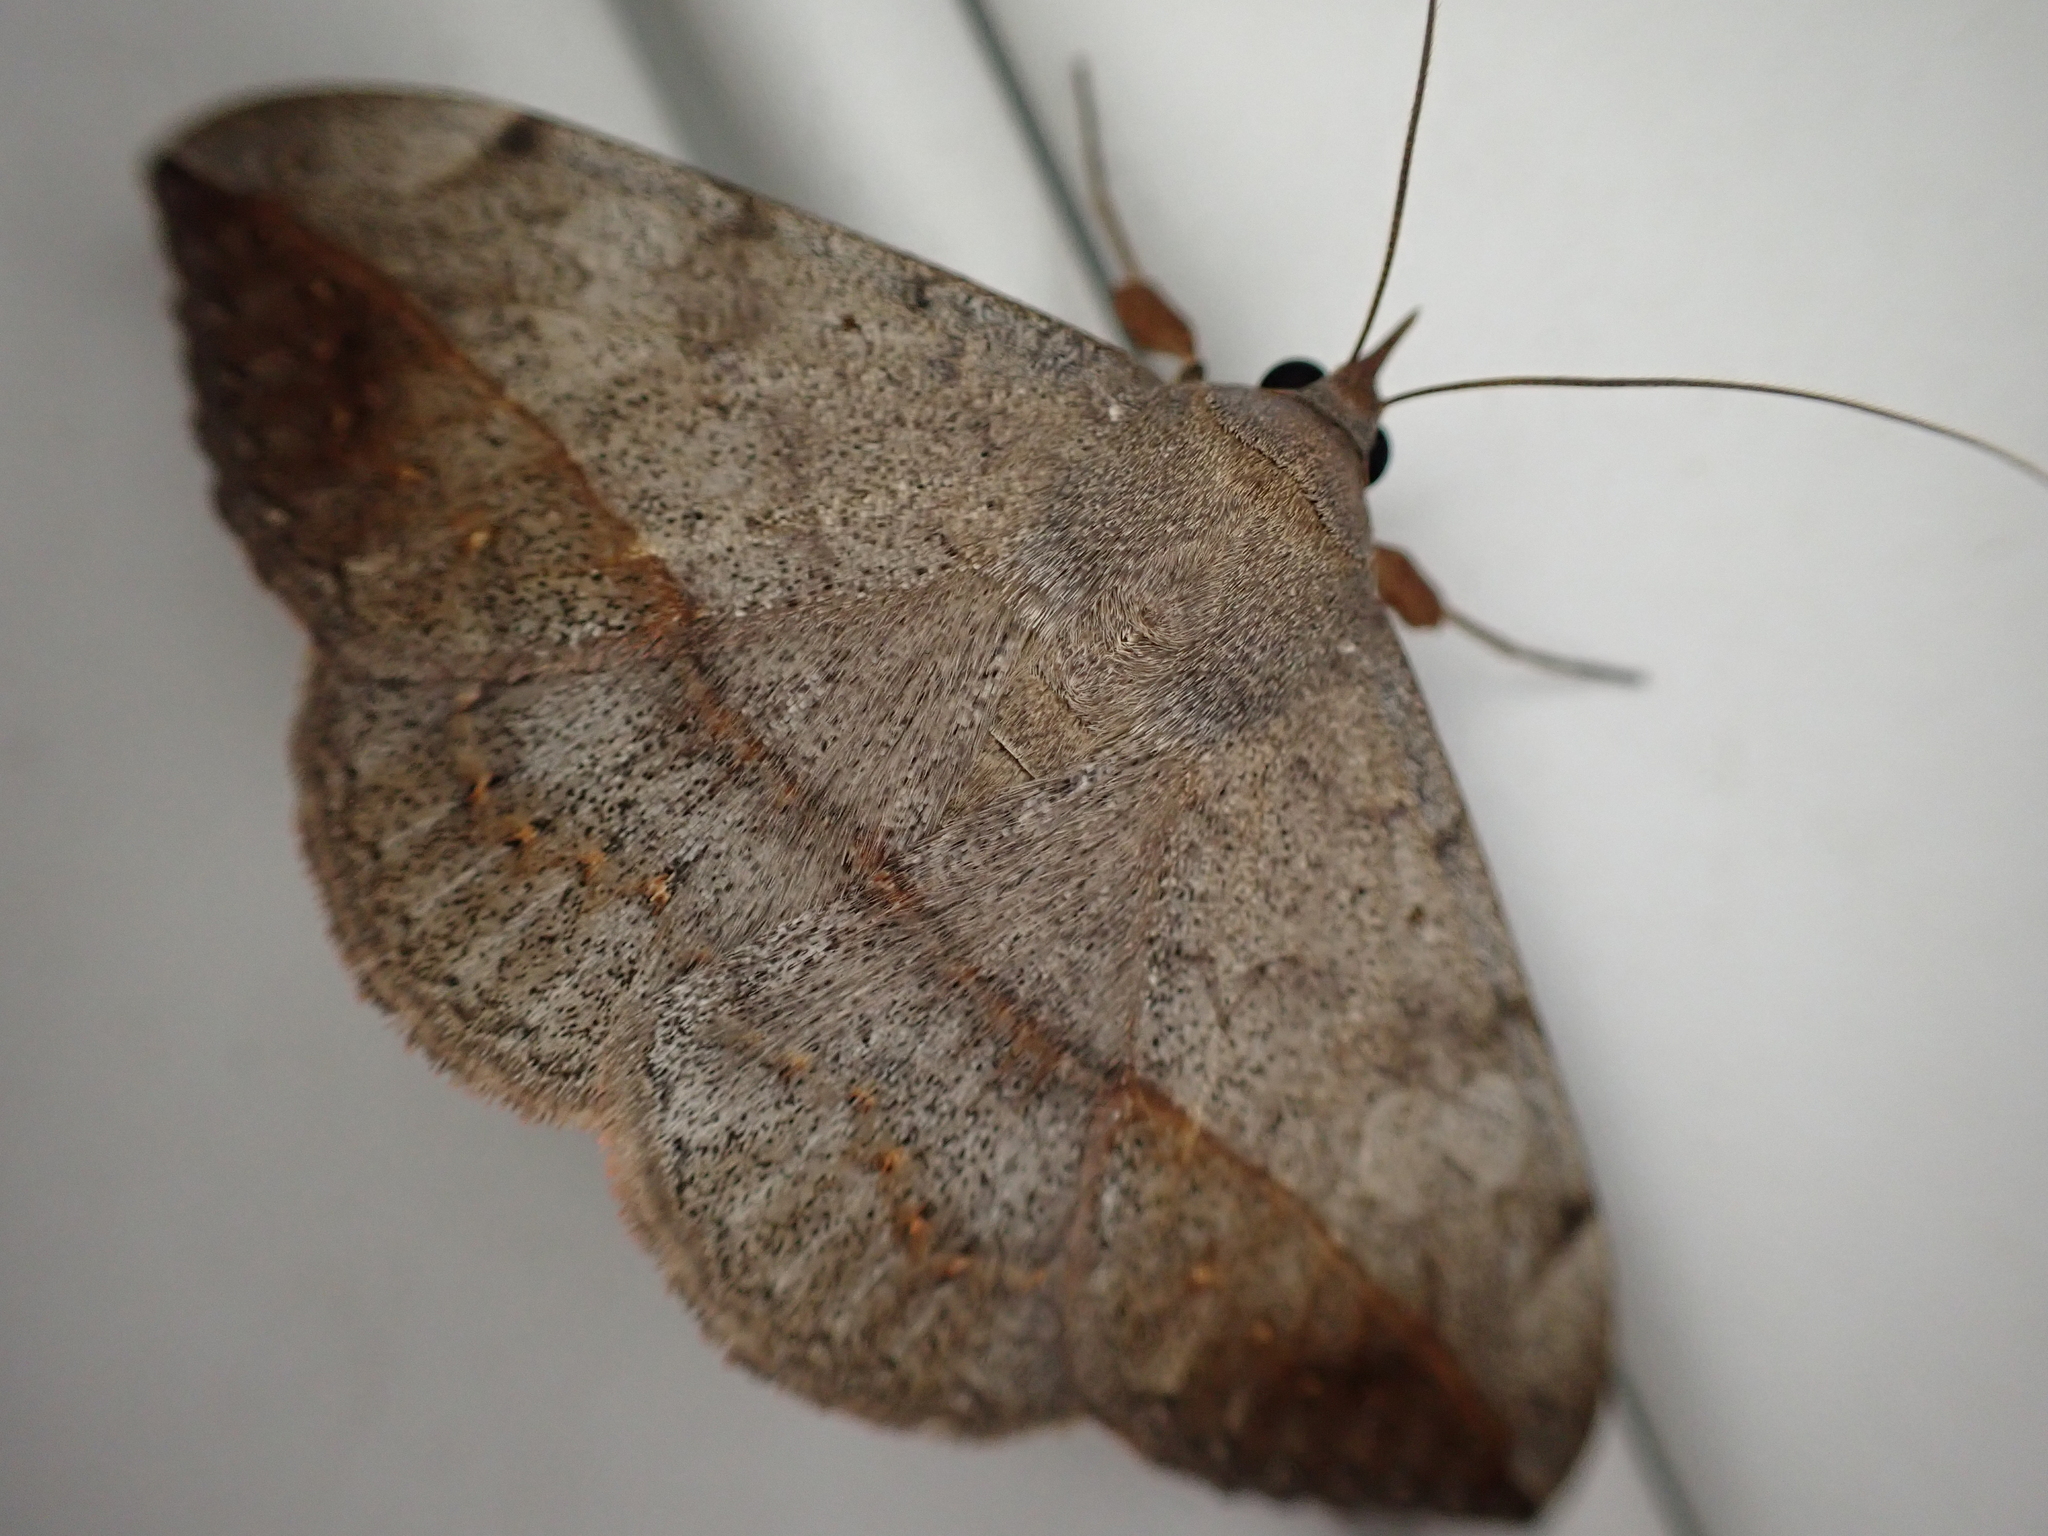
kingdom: Animalia
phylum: Arthropoda
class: Insecta
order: Lepidoptera
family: Erebidae
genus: Anticarsia
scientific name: Anticarsia gemmatalis
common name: Cutworm moth
